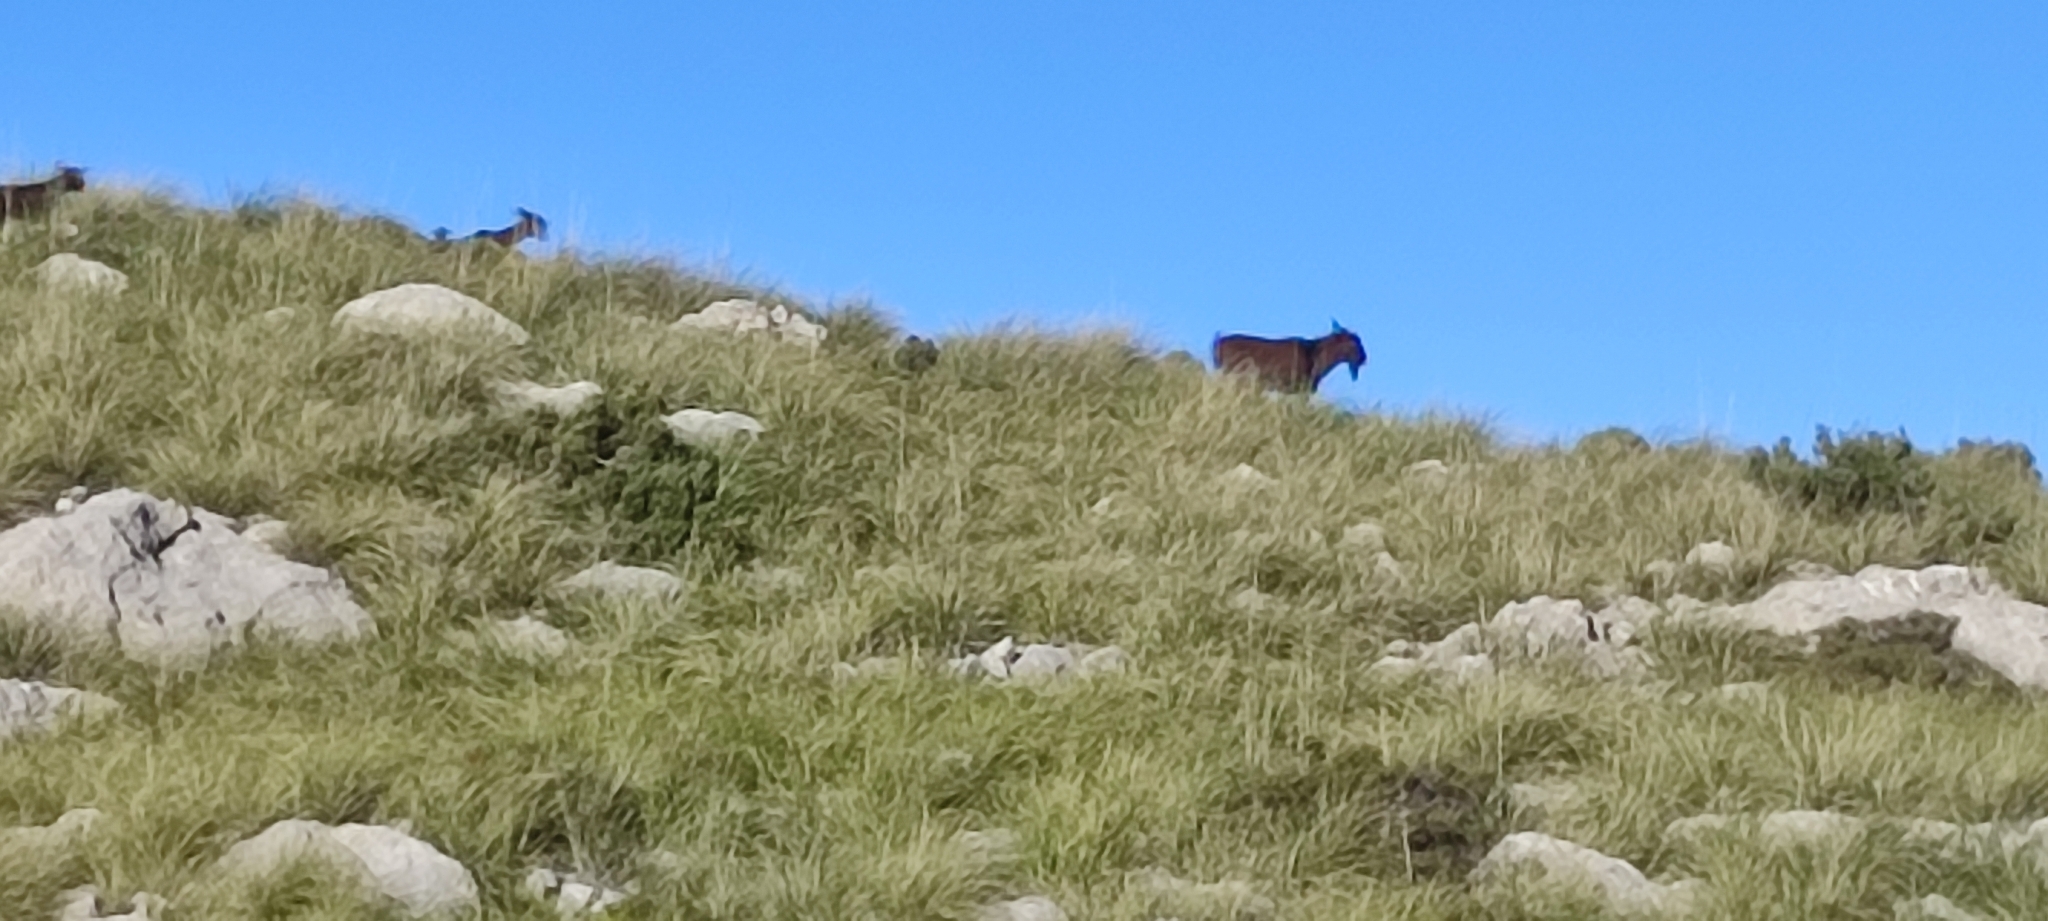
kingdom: Animalia
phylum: Chordata
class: Mammalia
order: Artiodactyla
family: Bovidae
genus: Capra
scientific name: Capra hircus
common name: Domestic goat
